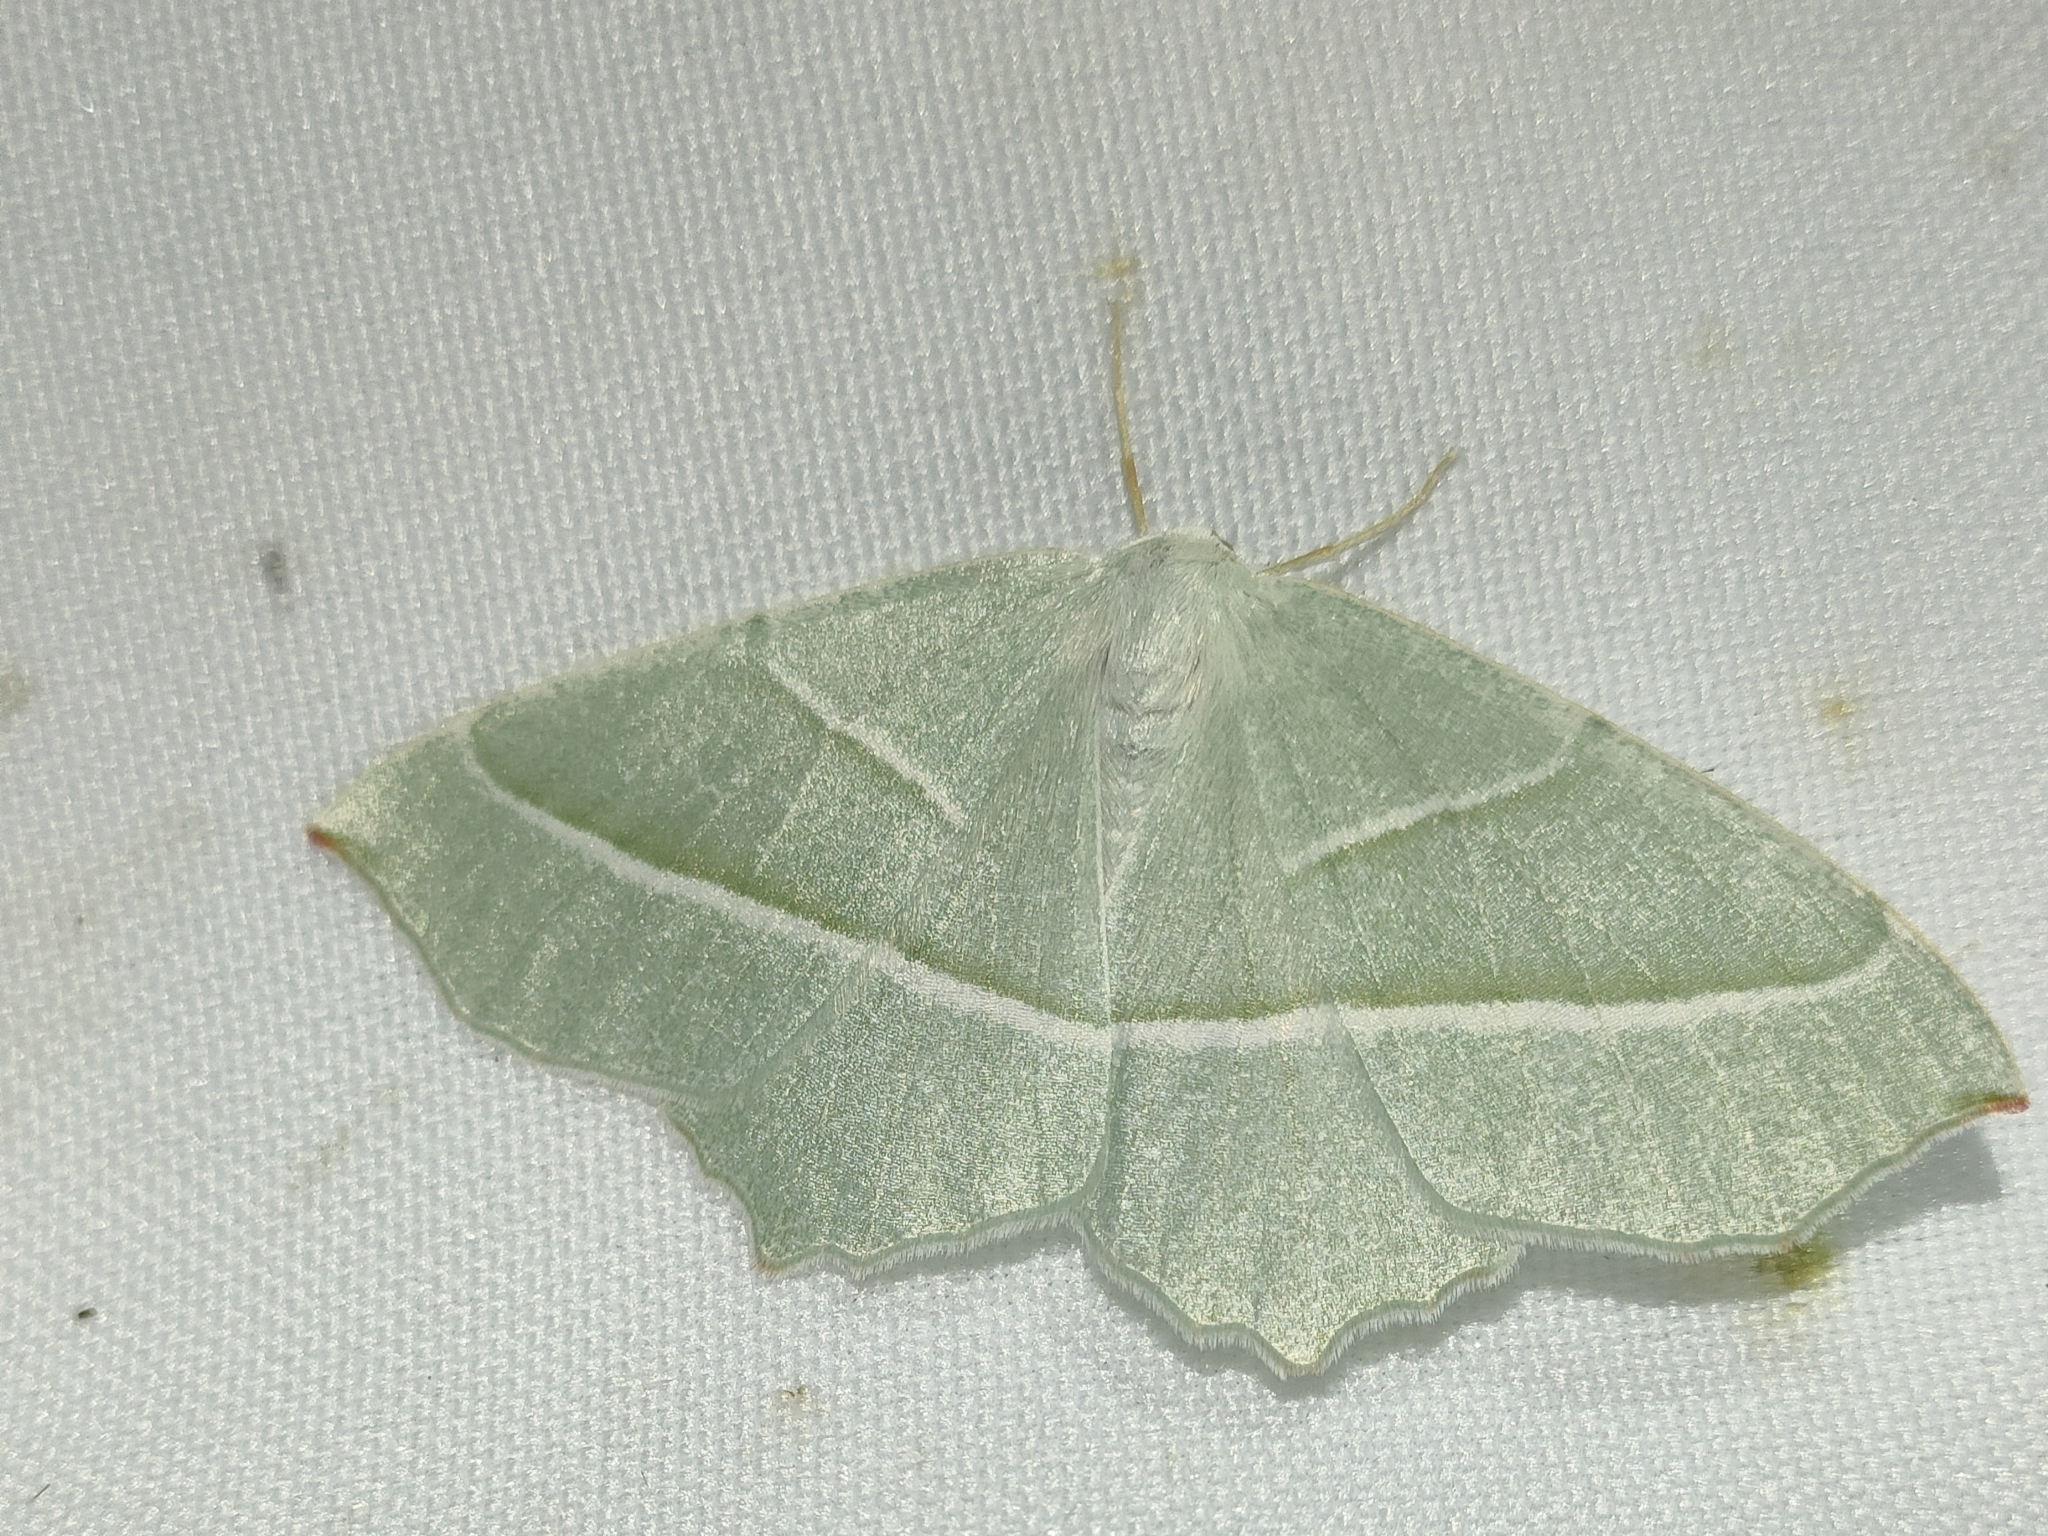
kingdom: Animalia
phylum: Arthropoda
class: Insecta
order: Lepidoptera
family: Geometridae
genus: Campaea
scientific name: Campaea margaritaria
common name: Light emerald
